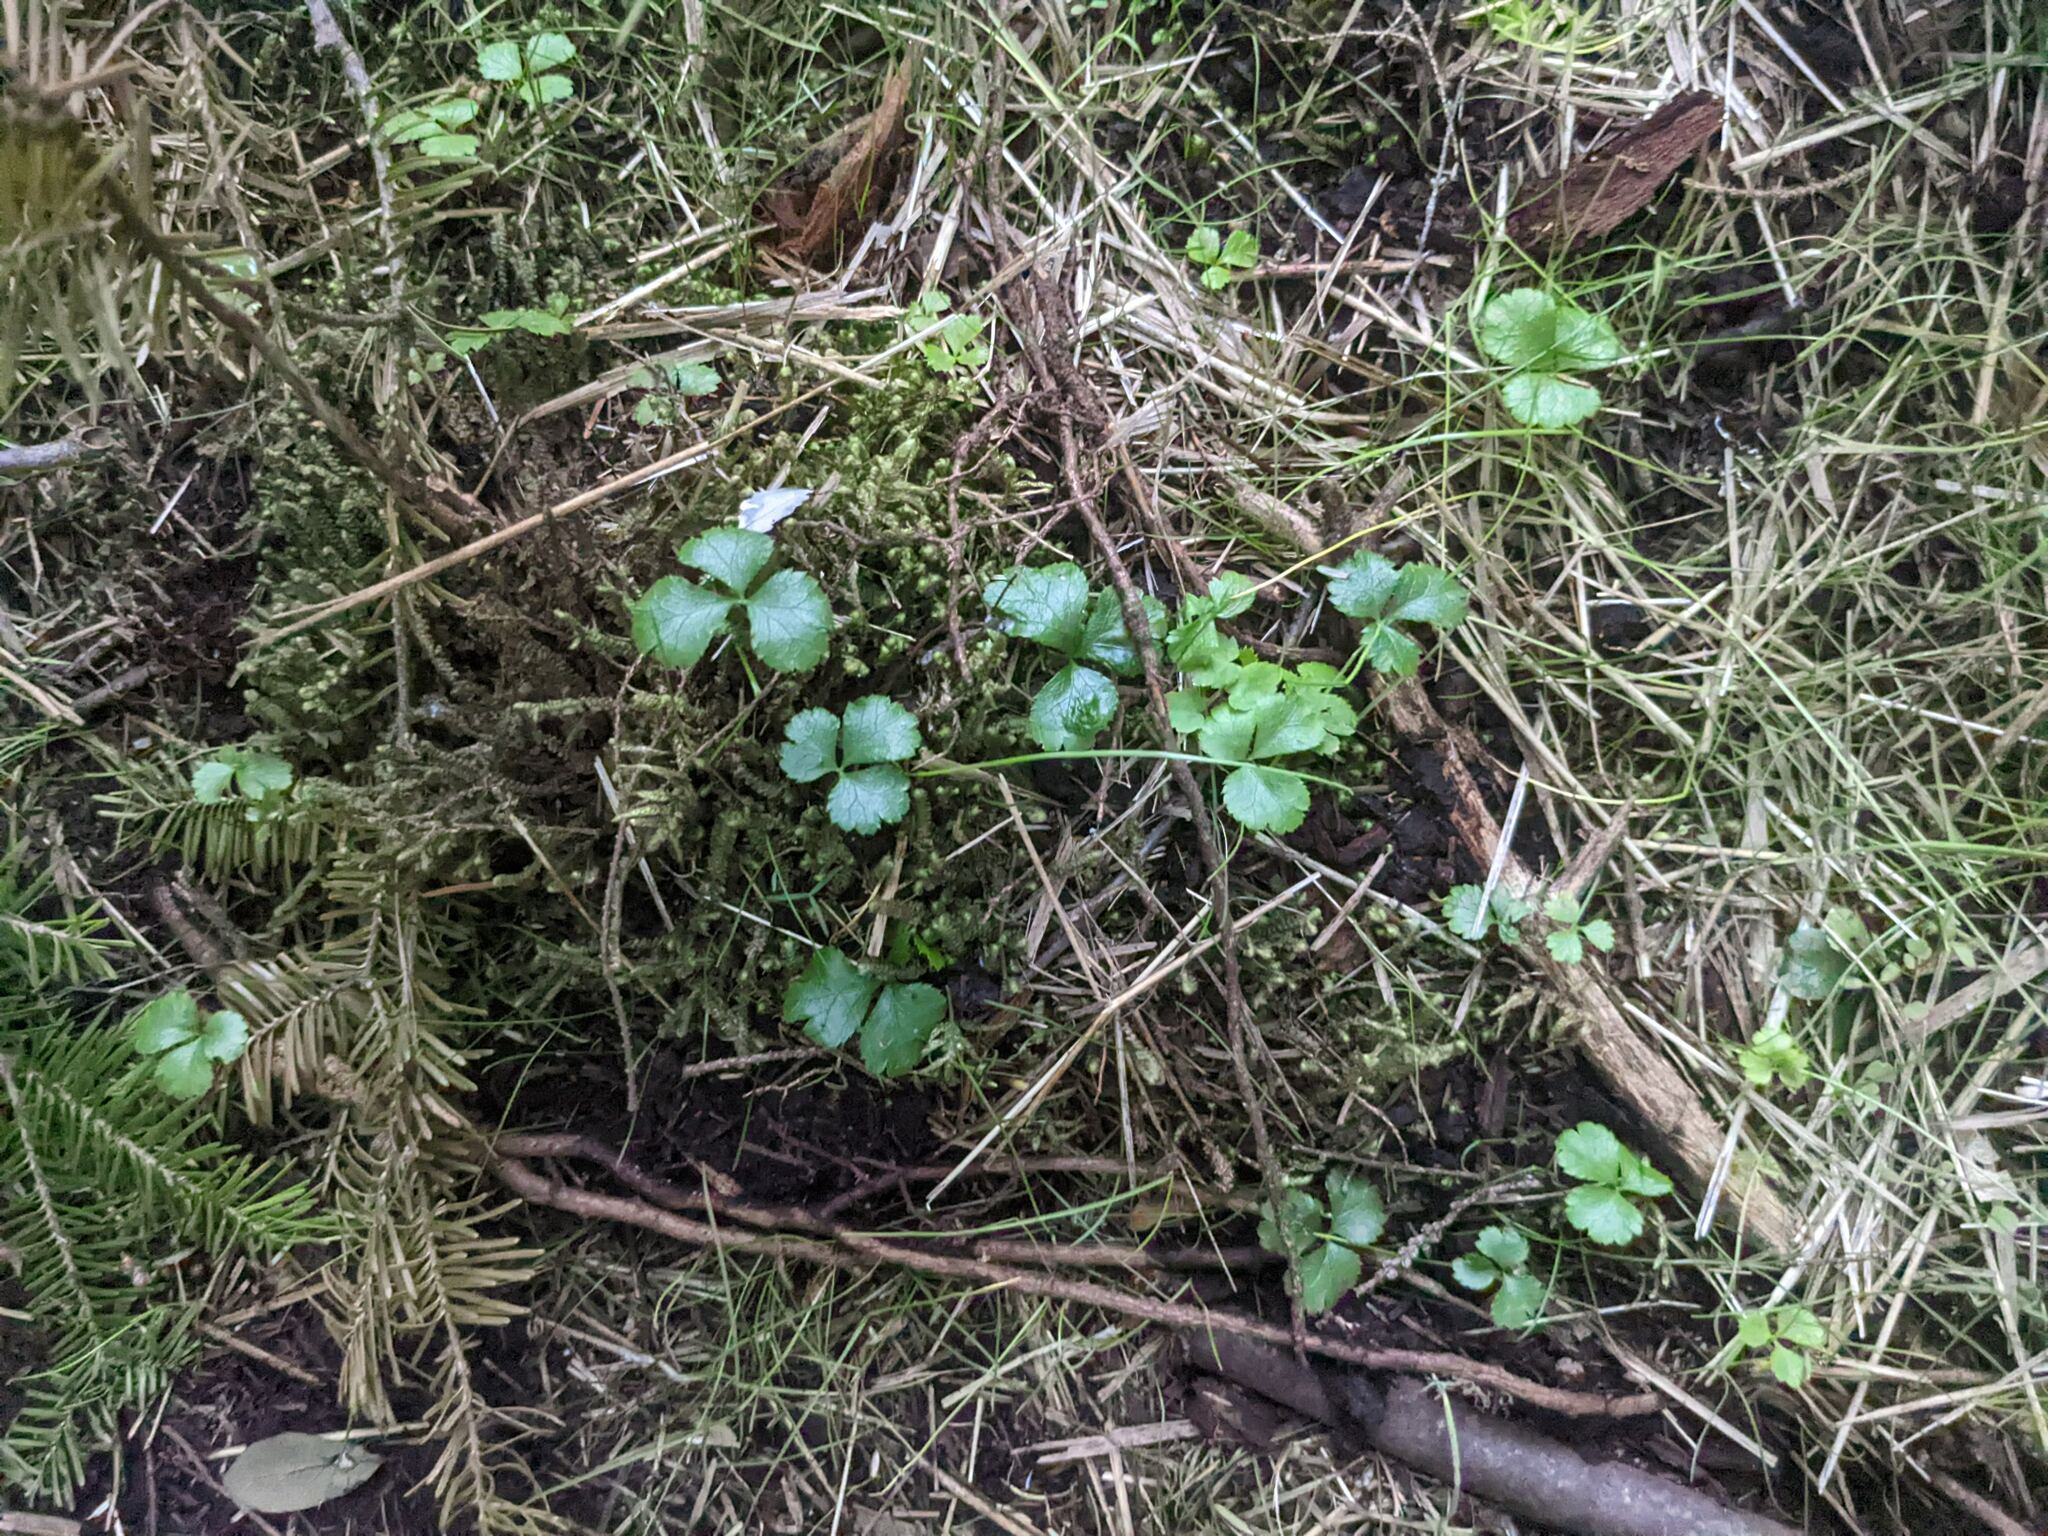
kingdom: Plantae
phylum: Tracheophyta
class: Magnoliopsida
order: Ranunculales
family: Ranunculaceae
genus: Coptis
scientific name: Coptis trifolia
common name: Canker-root
